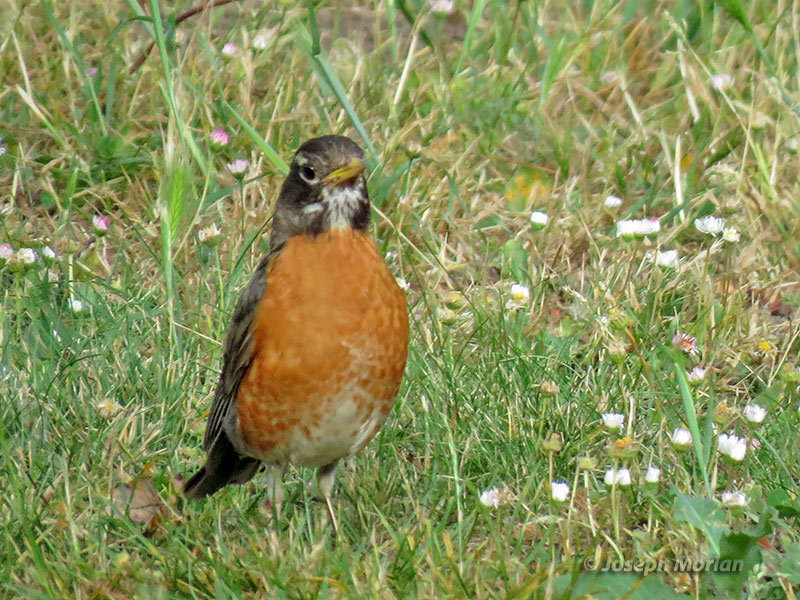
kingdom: Animalia
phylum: Chordata
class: Aves
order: Passeriformes
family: Turdidae
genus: Turdus
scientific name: Turdus migratorius
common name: American robin
